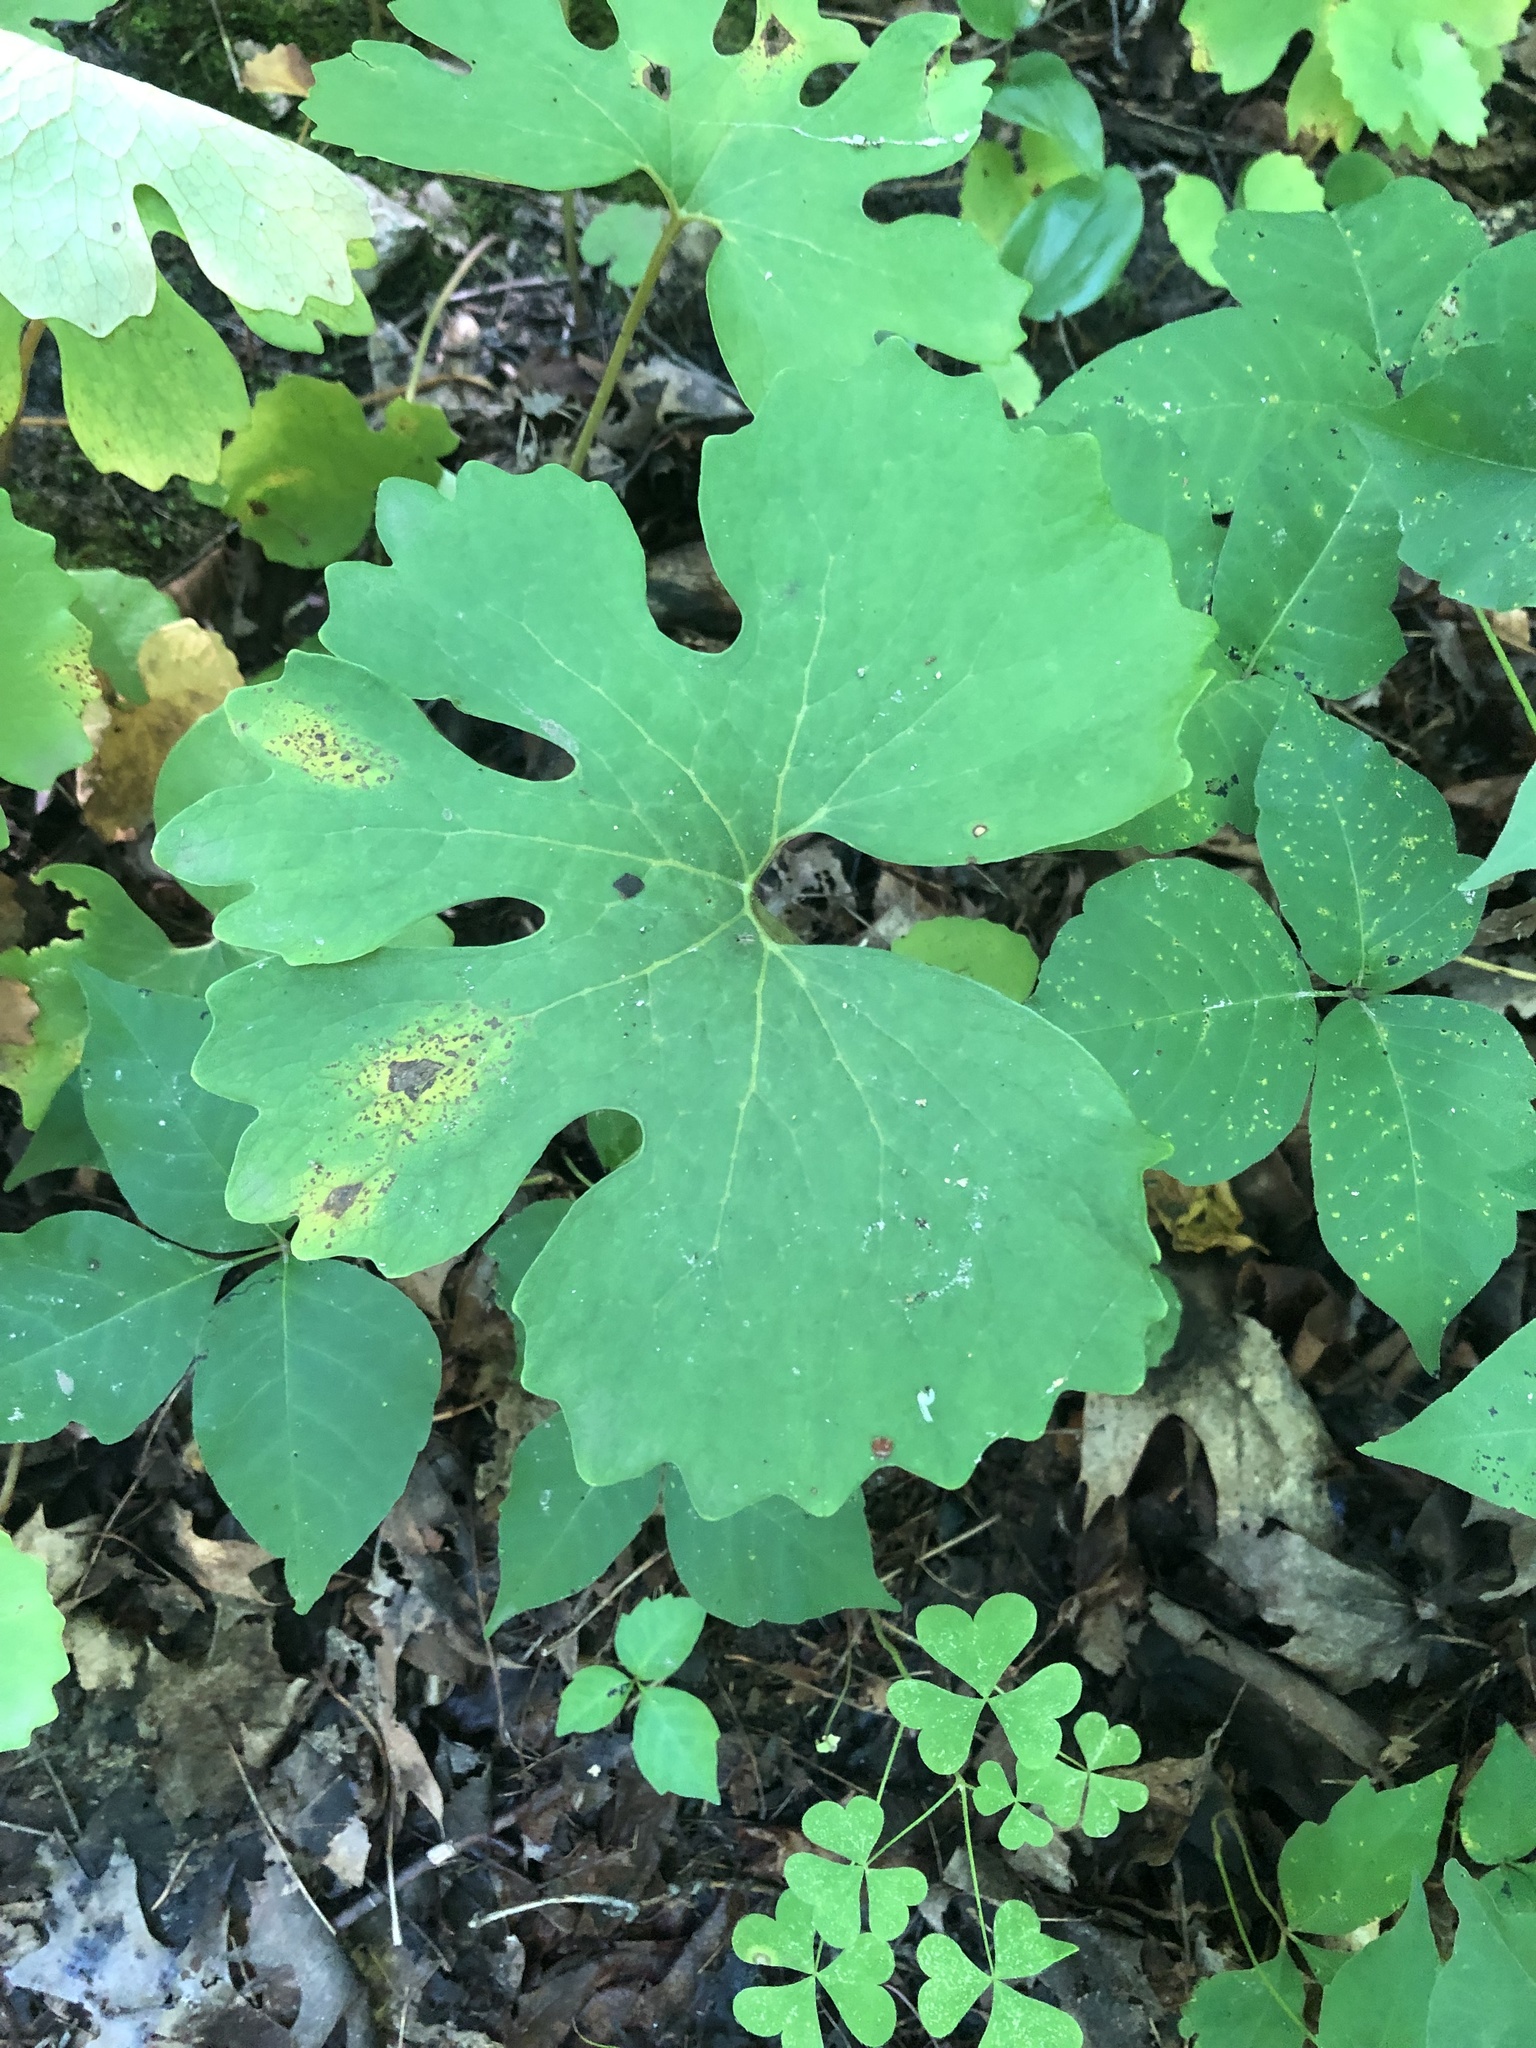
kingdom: Plantae
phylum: Tracheophyta
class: Magnoliopsida
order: Ranunculales
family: Papaveraceae
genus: Sanguinaria
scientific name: Sanguinaria canadensis
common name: Bloodroot
